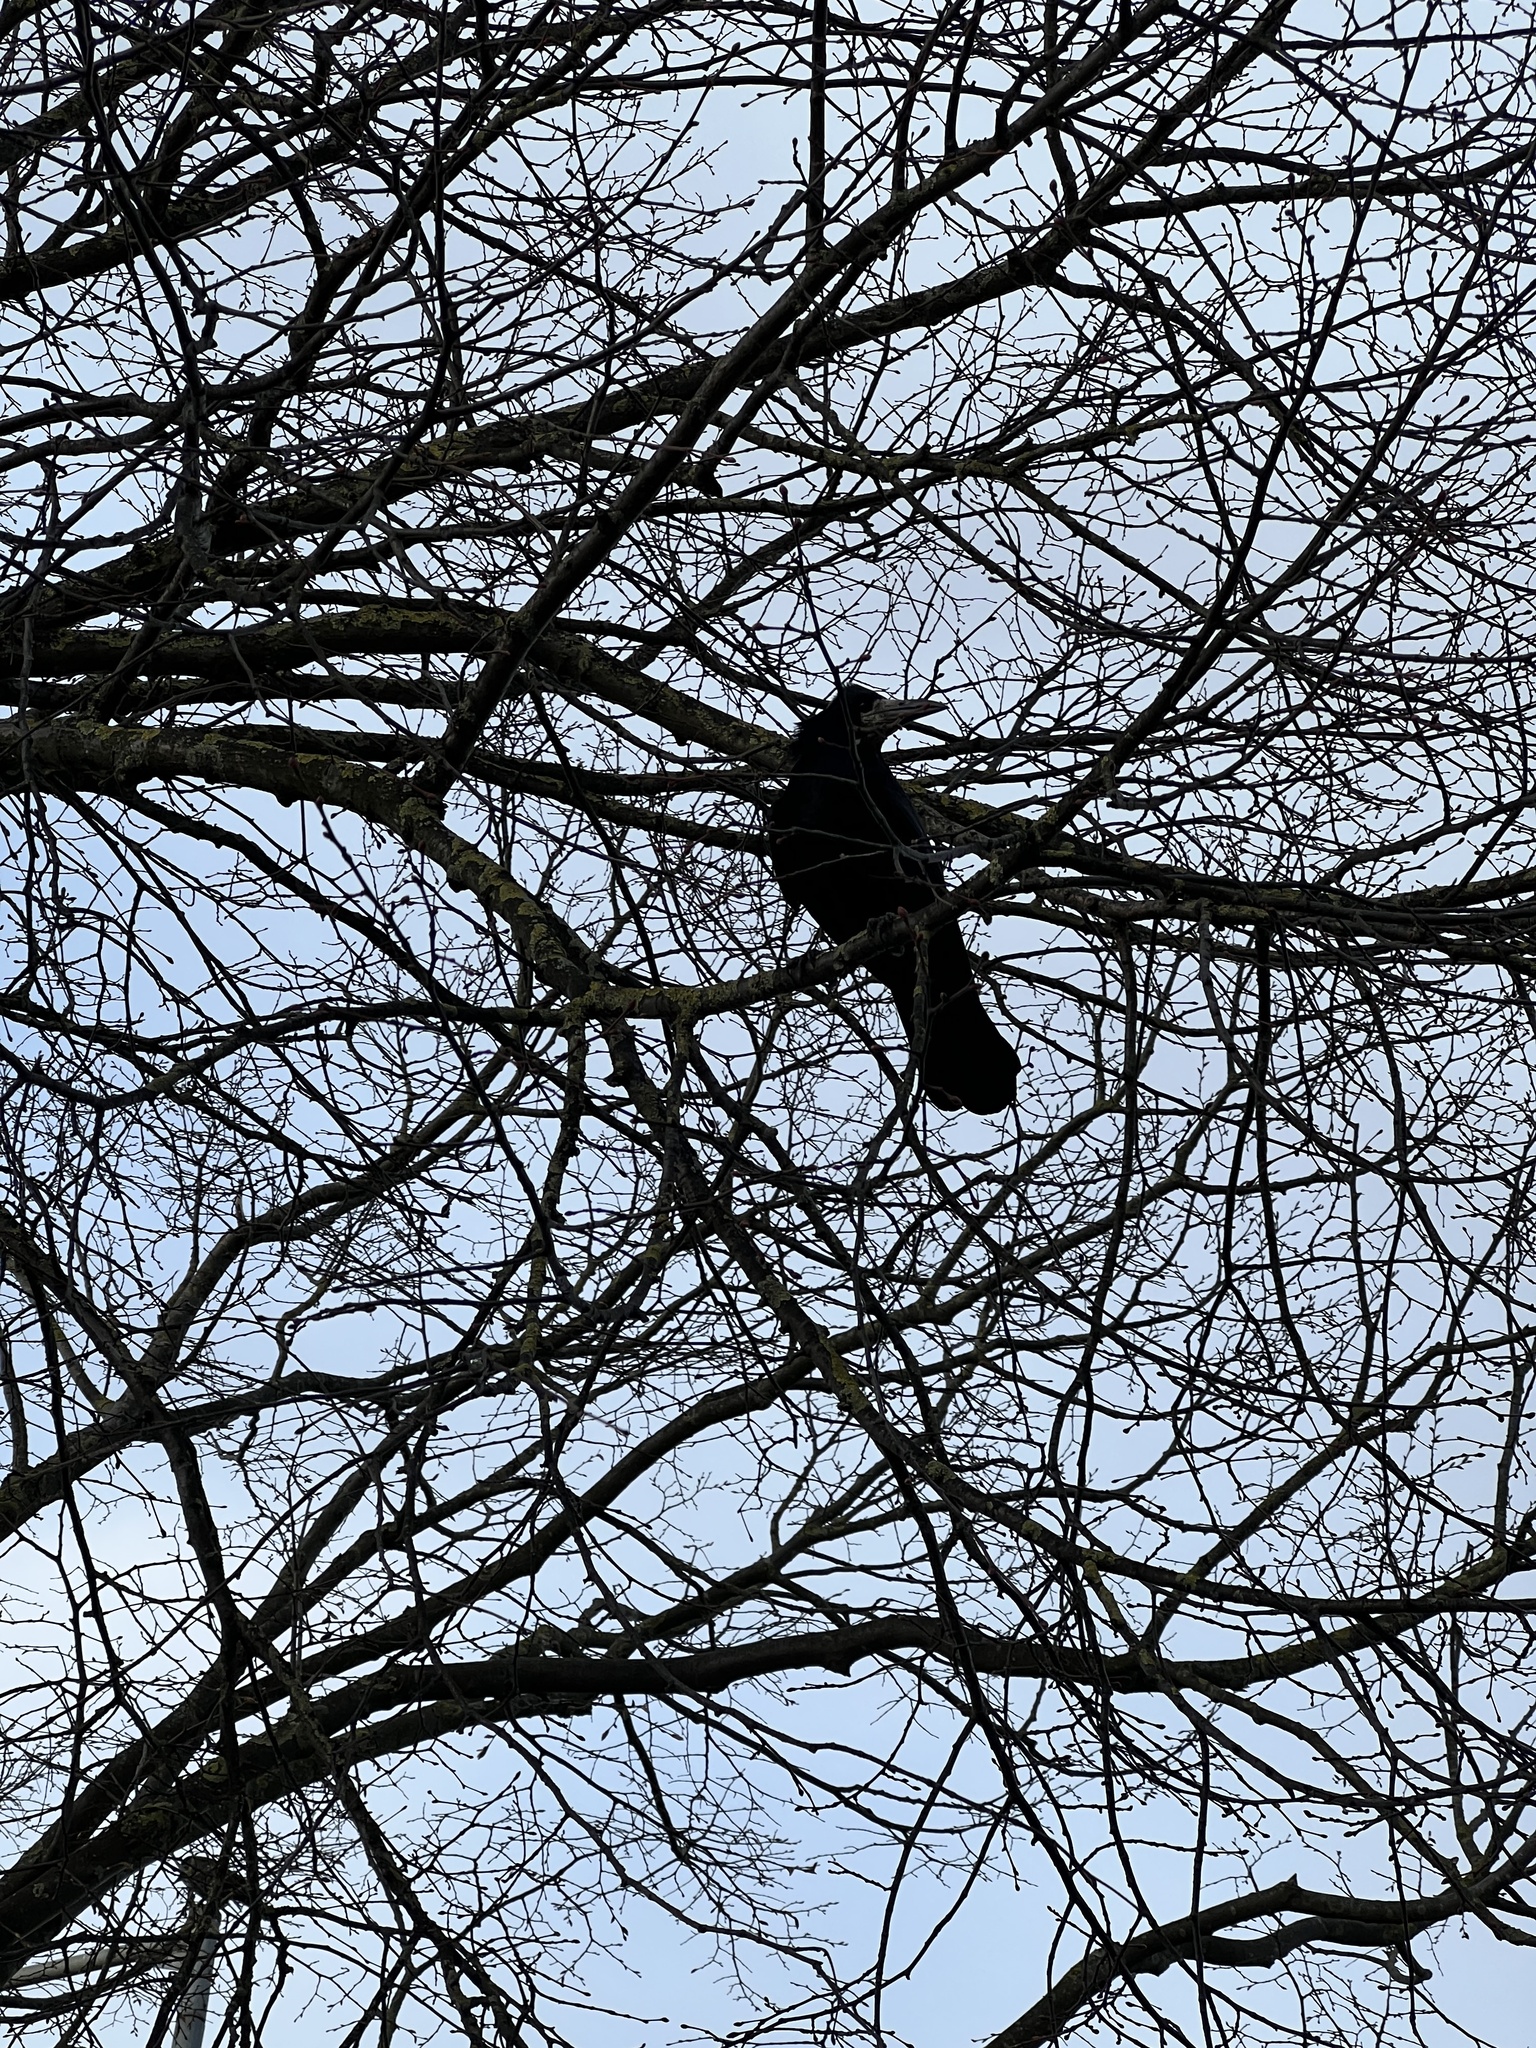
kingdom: Animalia
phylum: Chordata
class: Aves
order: Passeriformes
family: Corvidae
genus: Corvus
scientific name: Corvus frugilegus
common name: Rook
